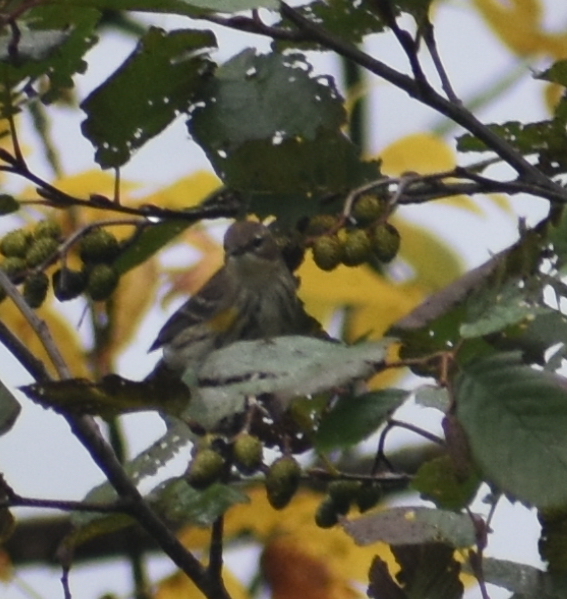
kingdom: Animalia
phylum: Chordata
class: Aves
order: Passeriformes
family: Parulidae
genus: Setophaga
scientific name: Setophaga coronata
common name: Myrtle warbler
